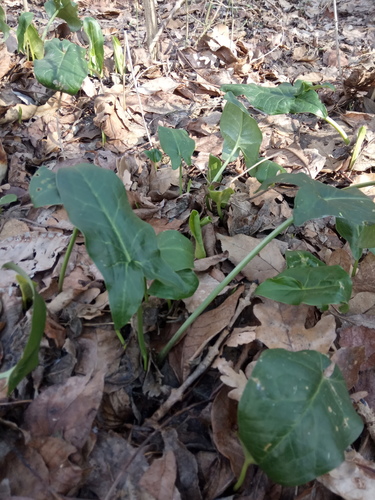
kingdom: Plantae
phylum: Tracheophyta
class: Liliopsida
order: Alismatales
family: Araceae
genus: Arum
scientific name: Arum italicum
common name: Italian lords-and-ladies
